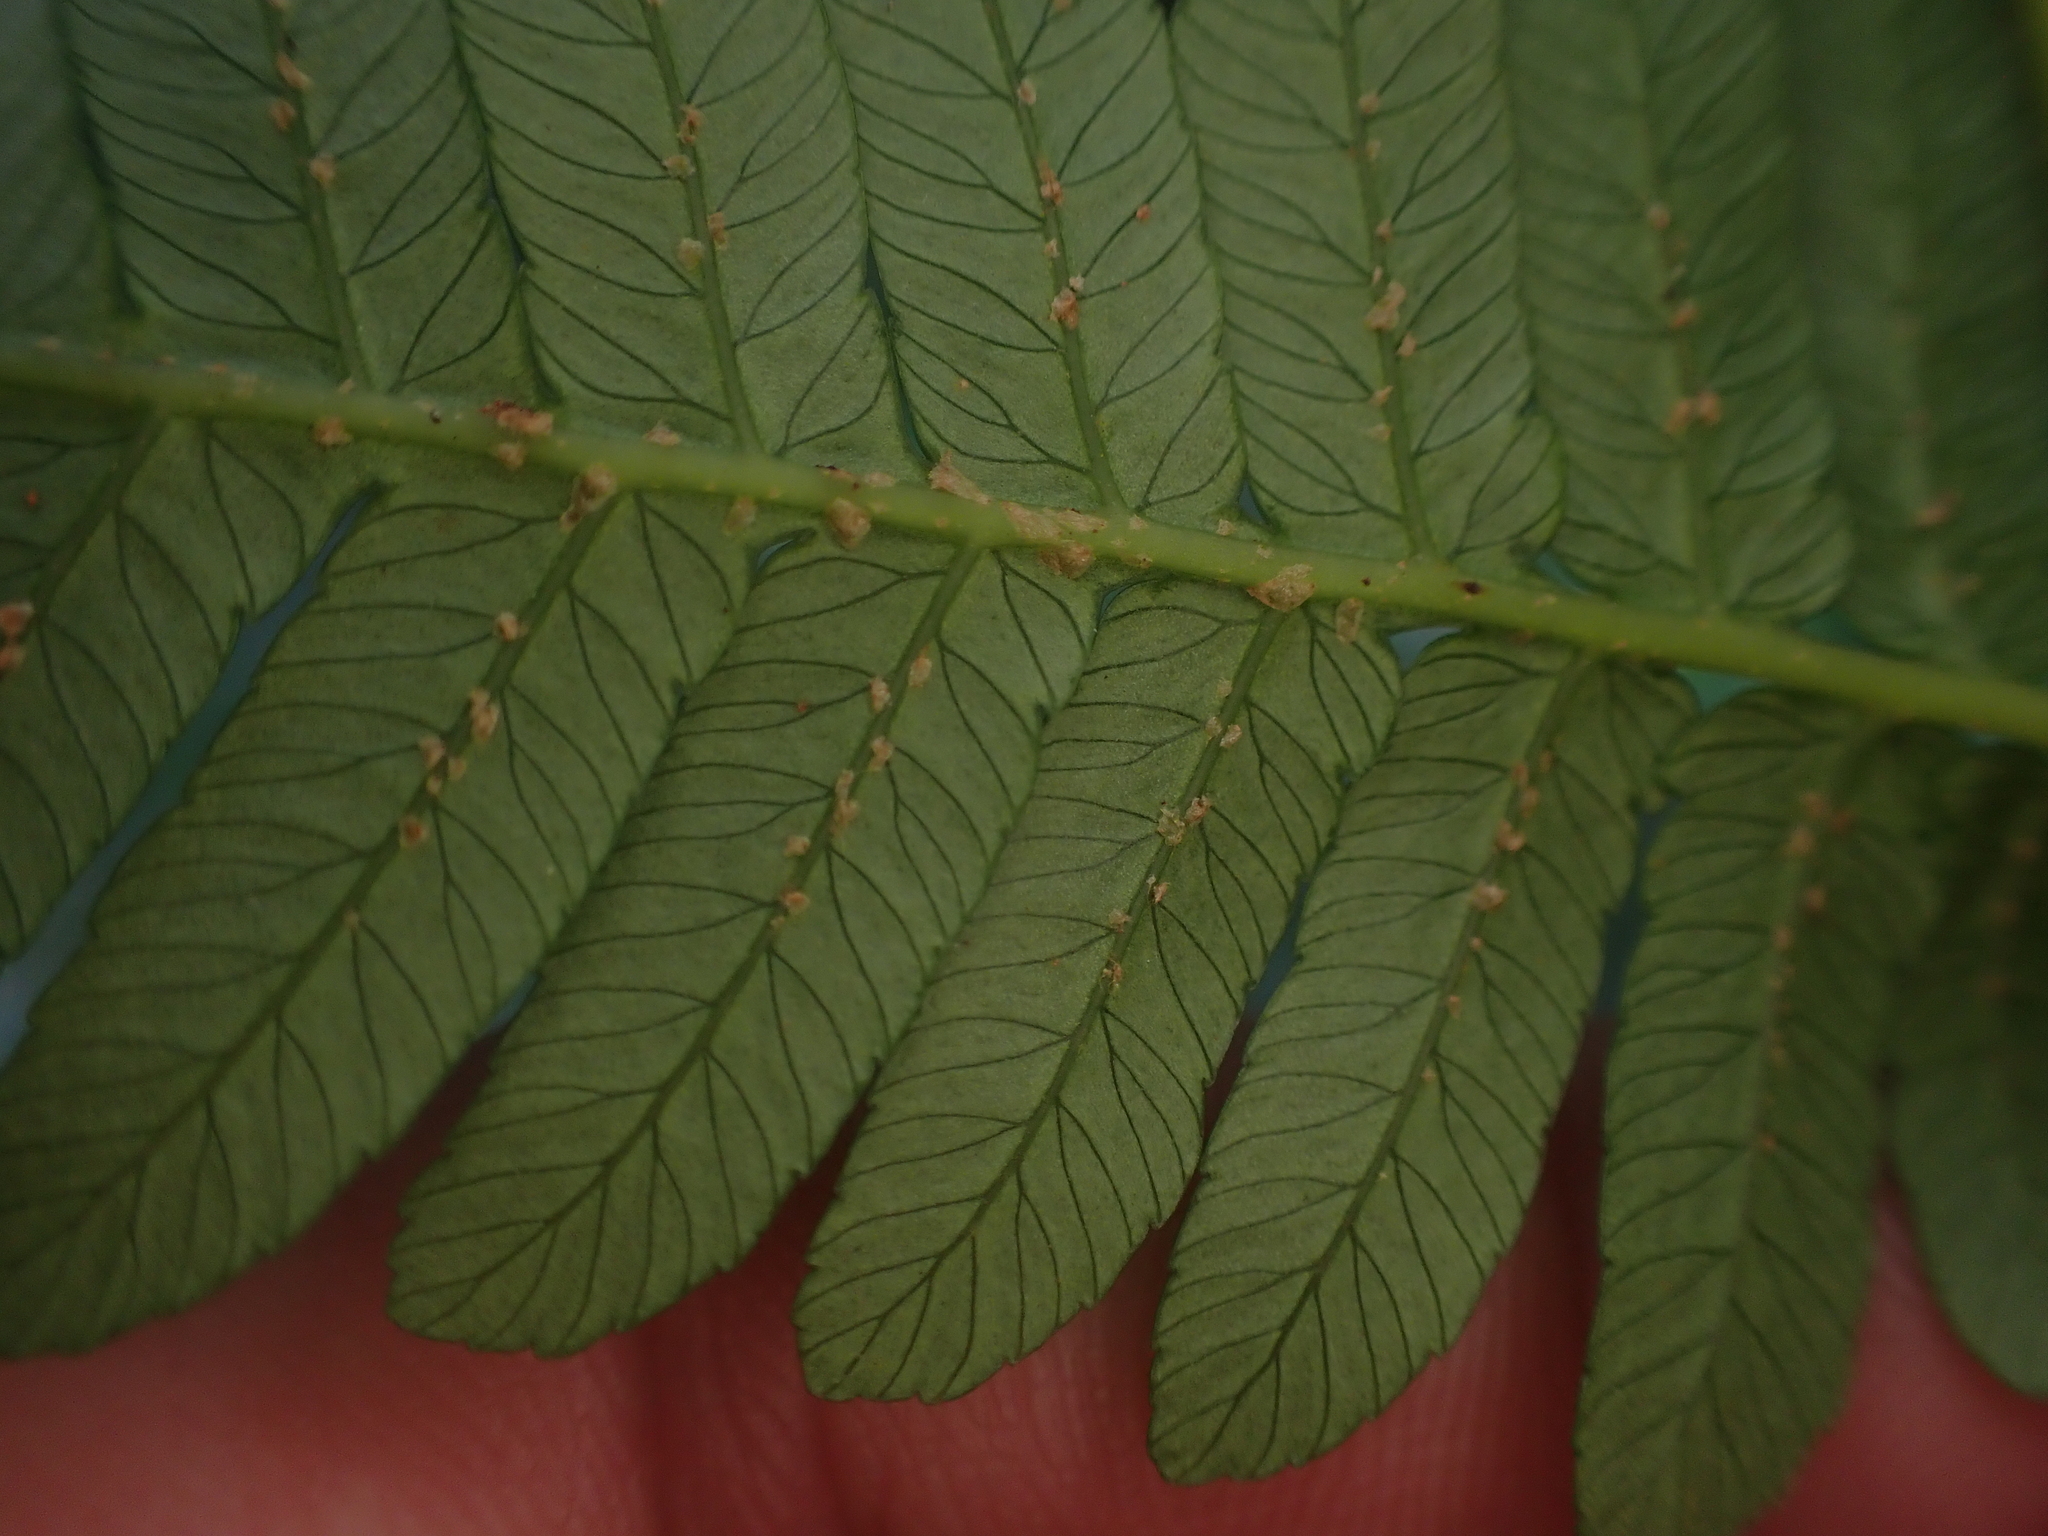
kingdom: Plantae
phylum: Tracheophyta
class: Polypodiopsida
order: Cyatheales
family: Cyatheaceae
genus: Alsophila
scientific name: Alsophila fenicis
